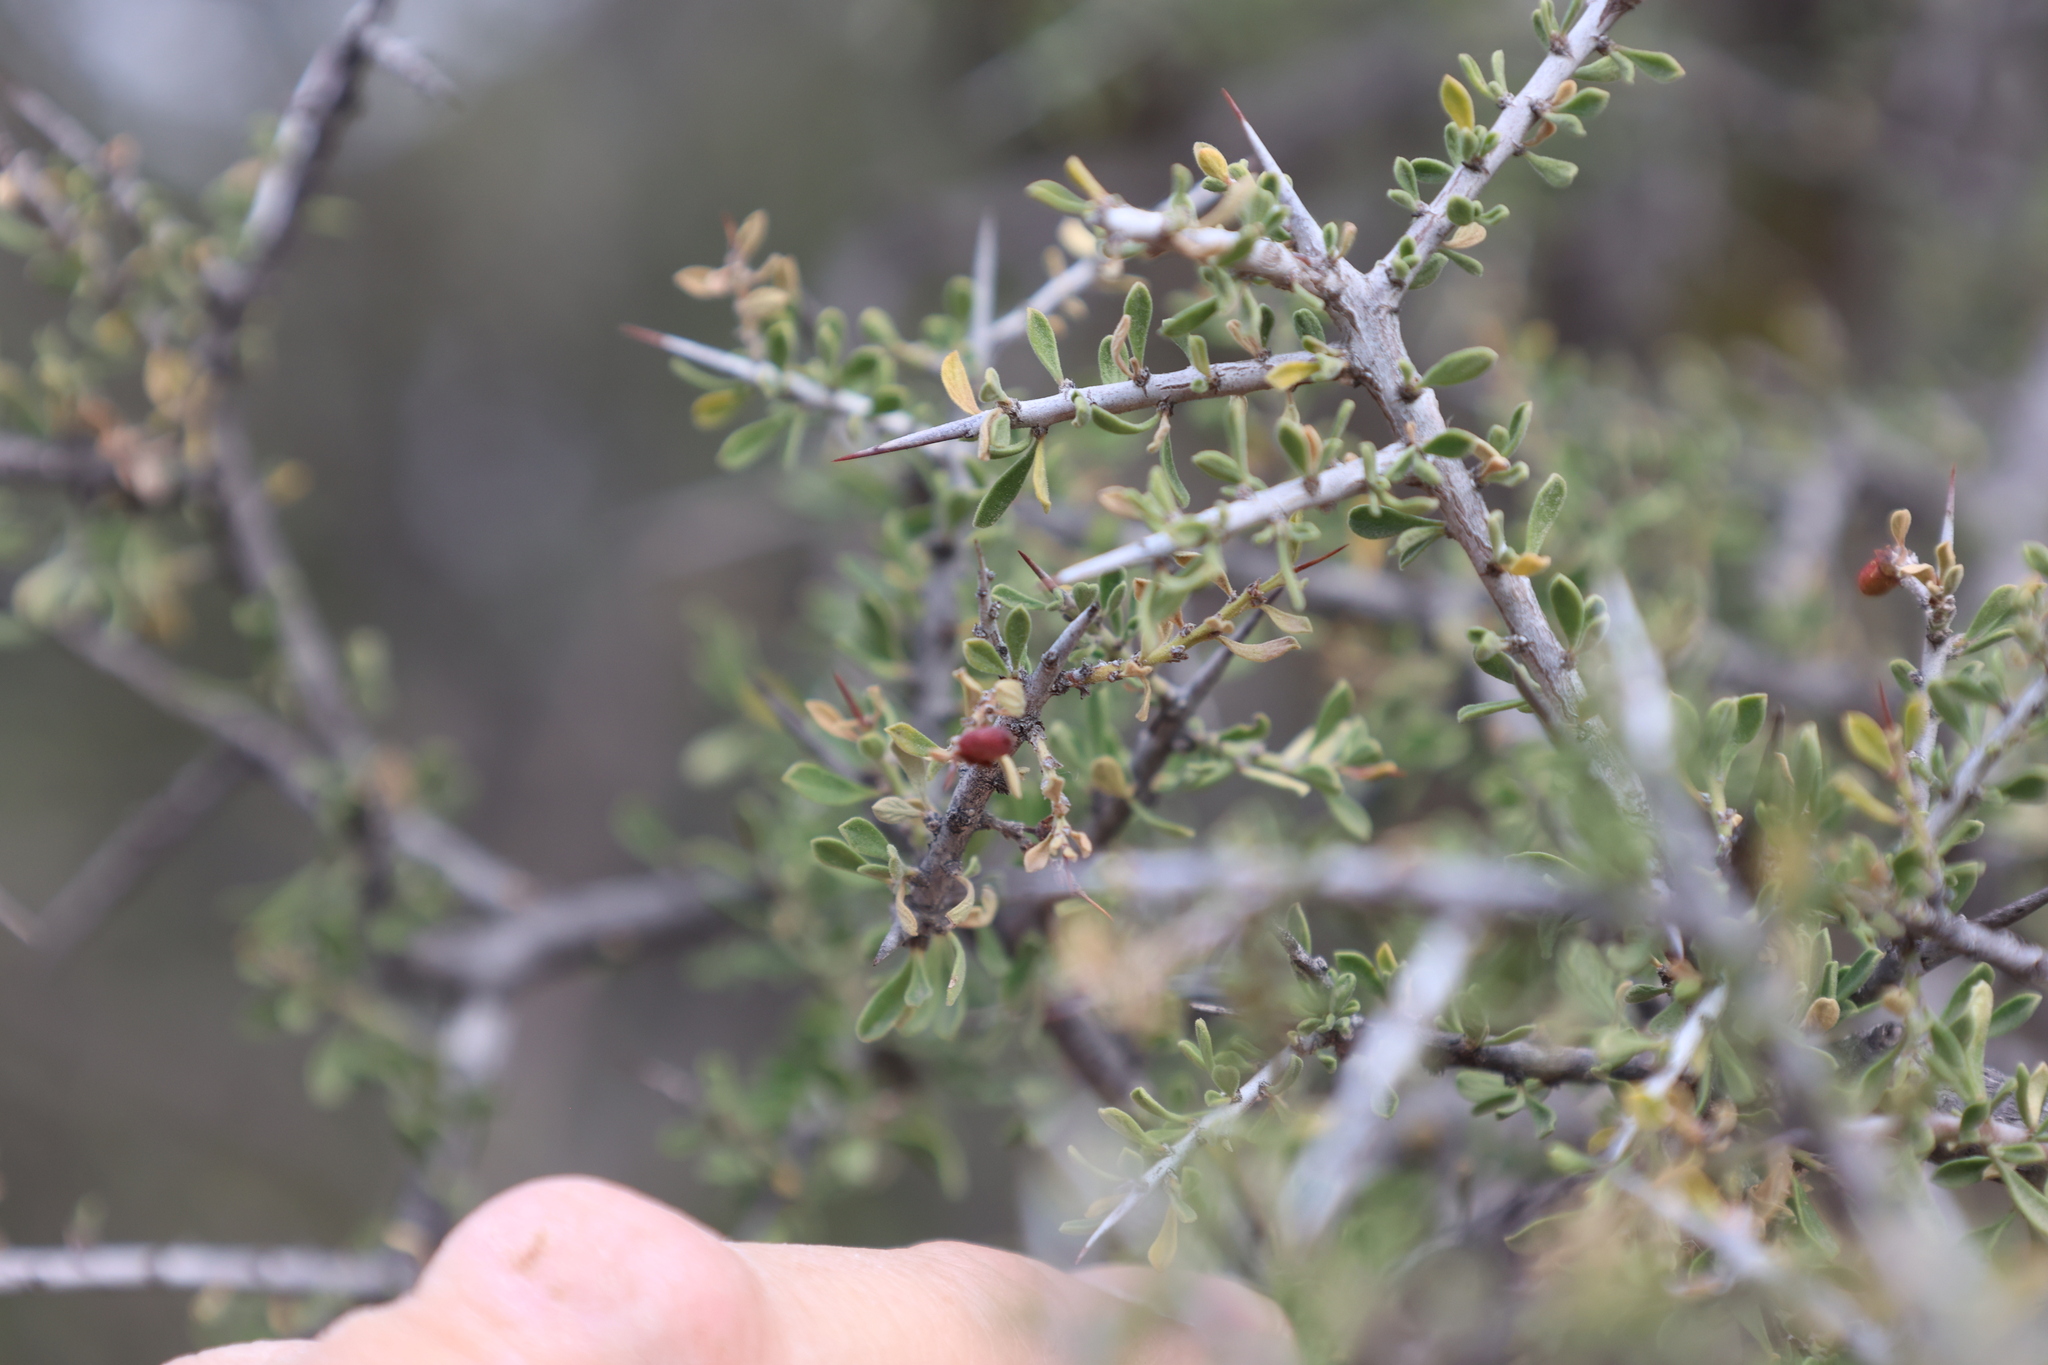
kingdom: Plantae
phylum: Tracheophyta
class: Magnoliopsida
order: Rosales
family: Rhamnaceae
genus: Condalia
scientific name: Condalia warnockii
